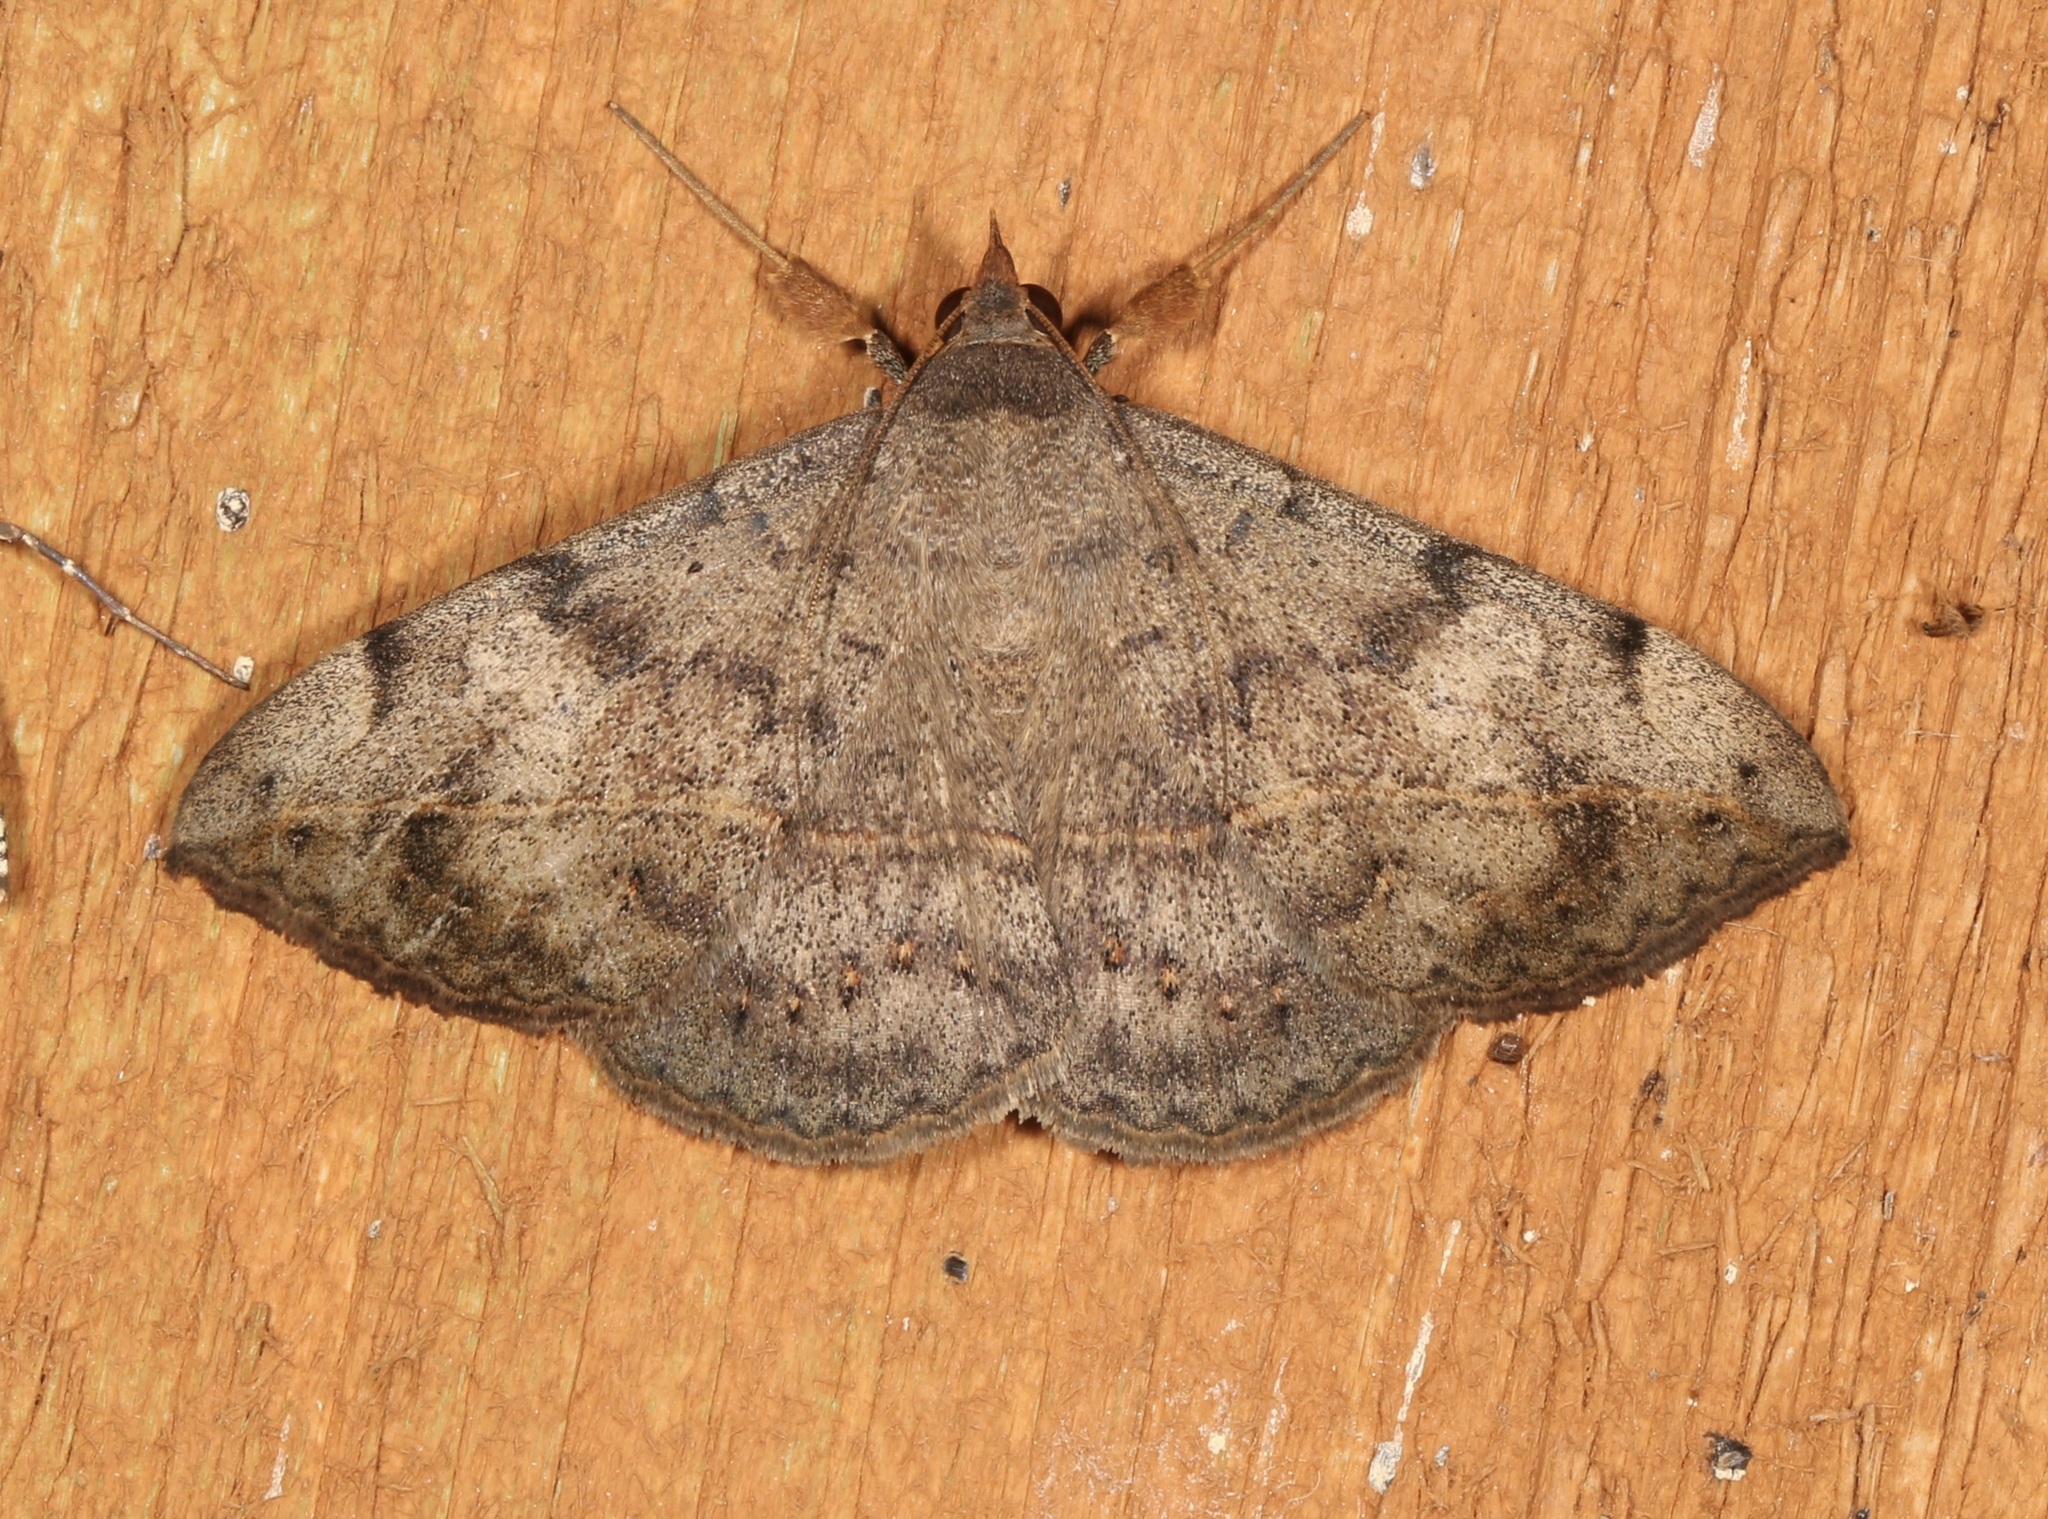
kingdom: Animalia
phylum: Arthropoda
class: Insecta
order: Lepidoptera
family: Erebidae
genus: Anticarsia
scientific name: Anticarsia gemmatalis
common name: Cutworm moth
